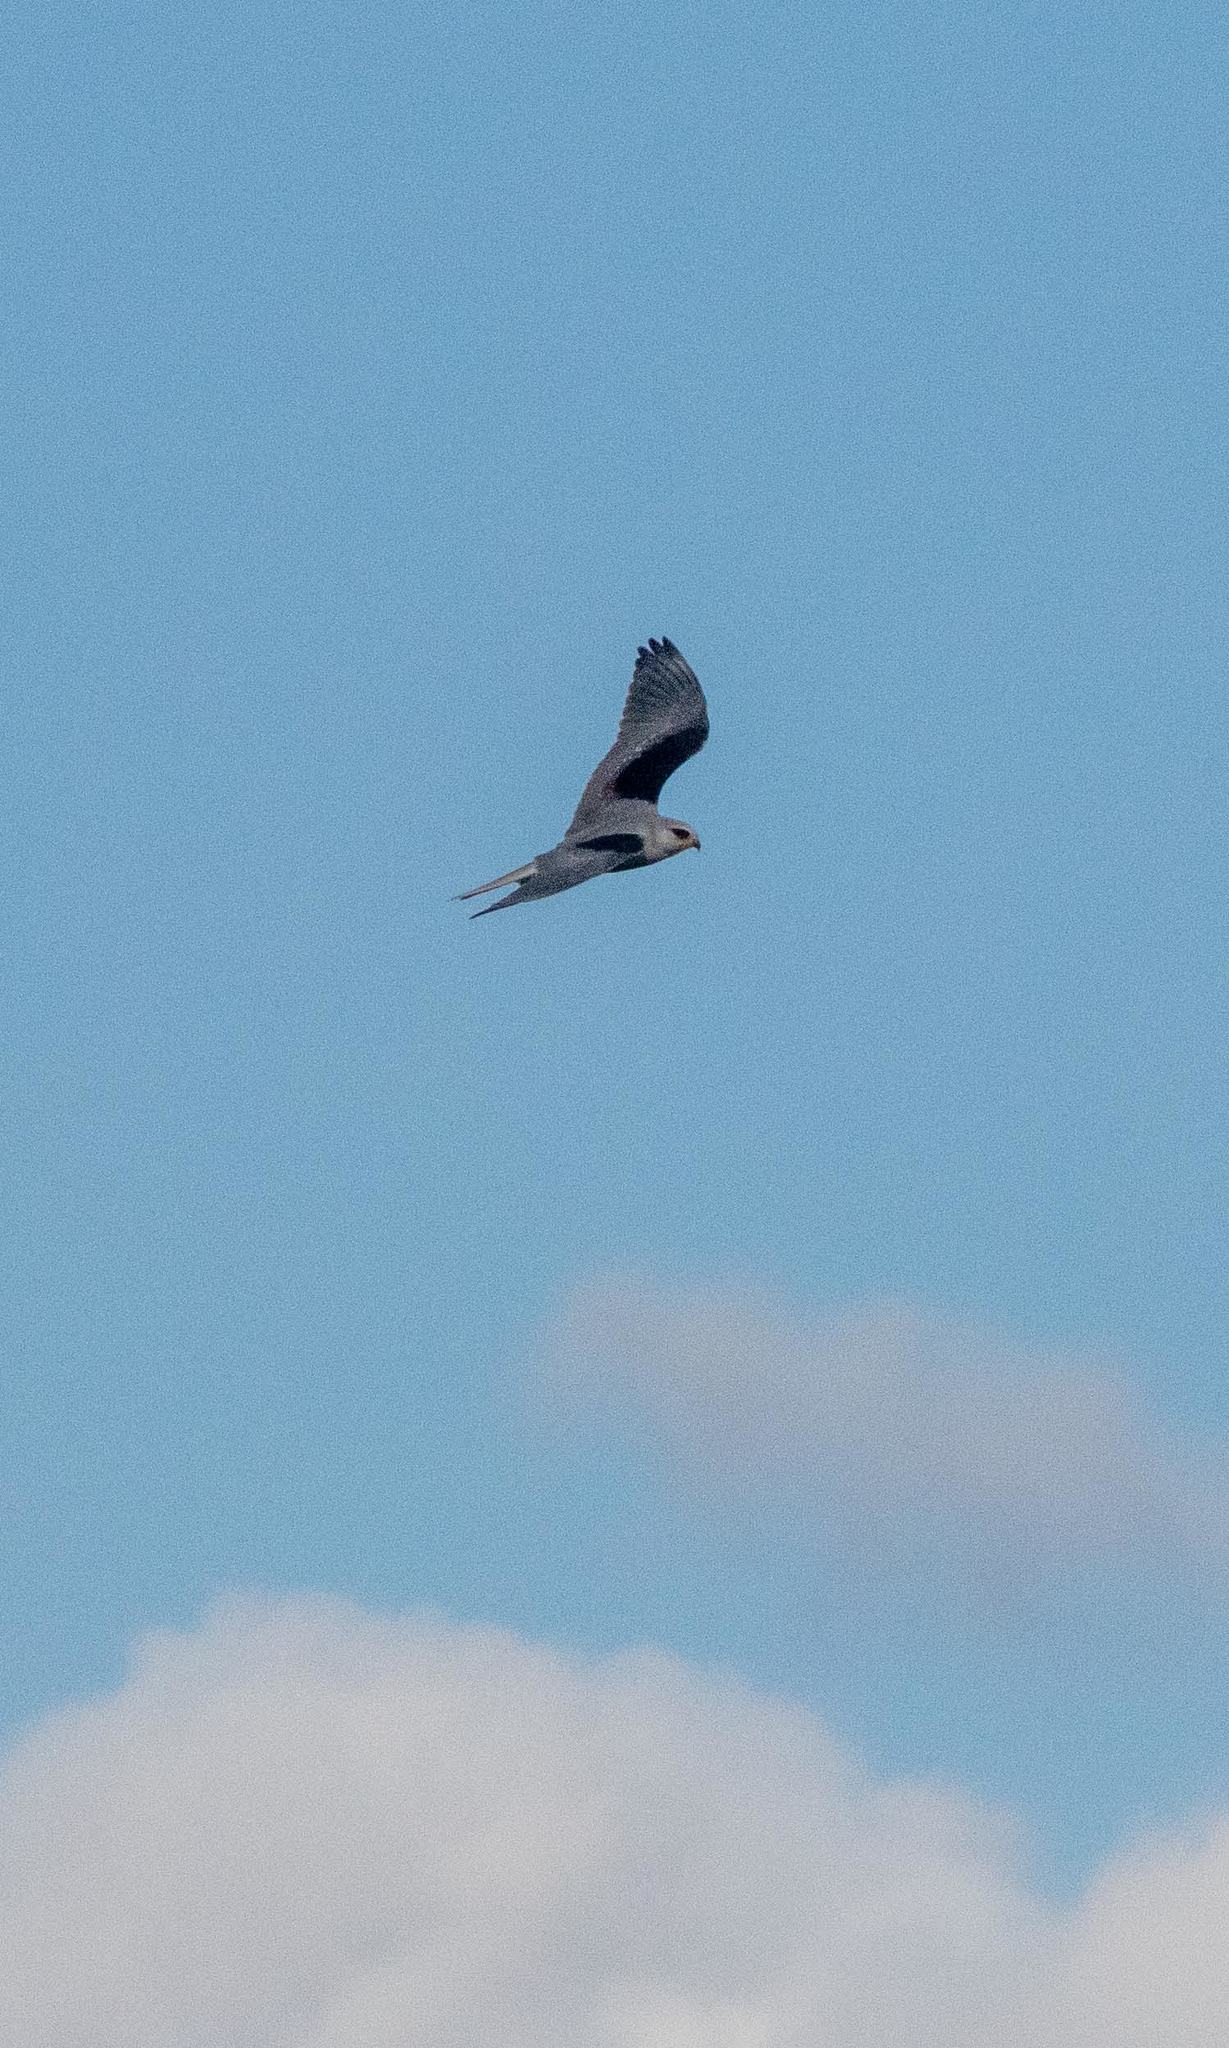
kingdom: Animalia
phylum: Chordata
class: Aves
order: Accipitriformes
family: Accipitridae
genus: Elanus
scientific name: Elanus leucurus
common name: White-tailed kite
